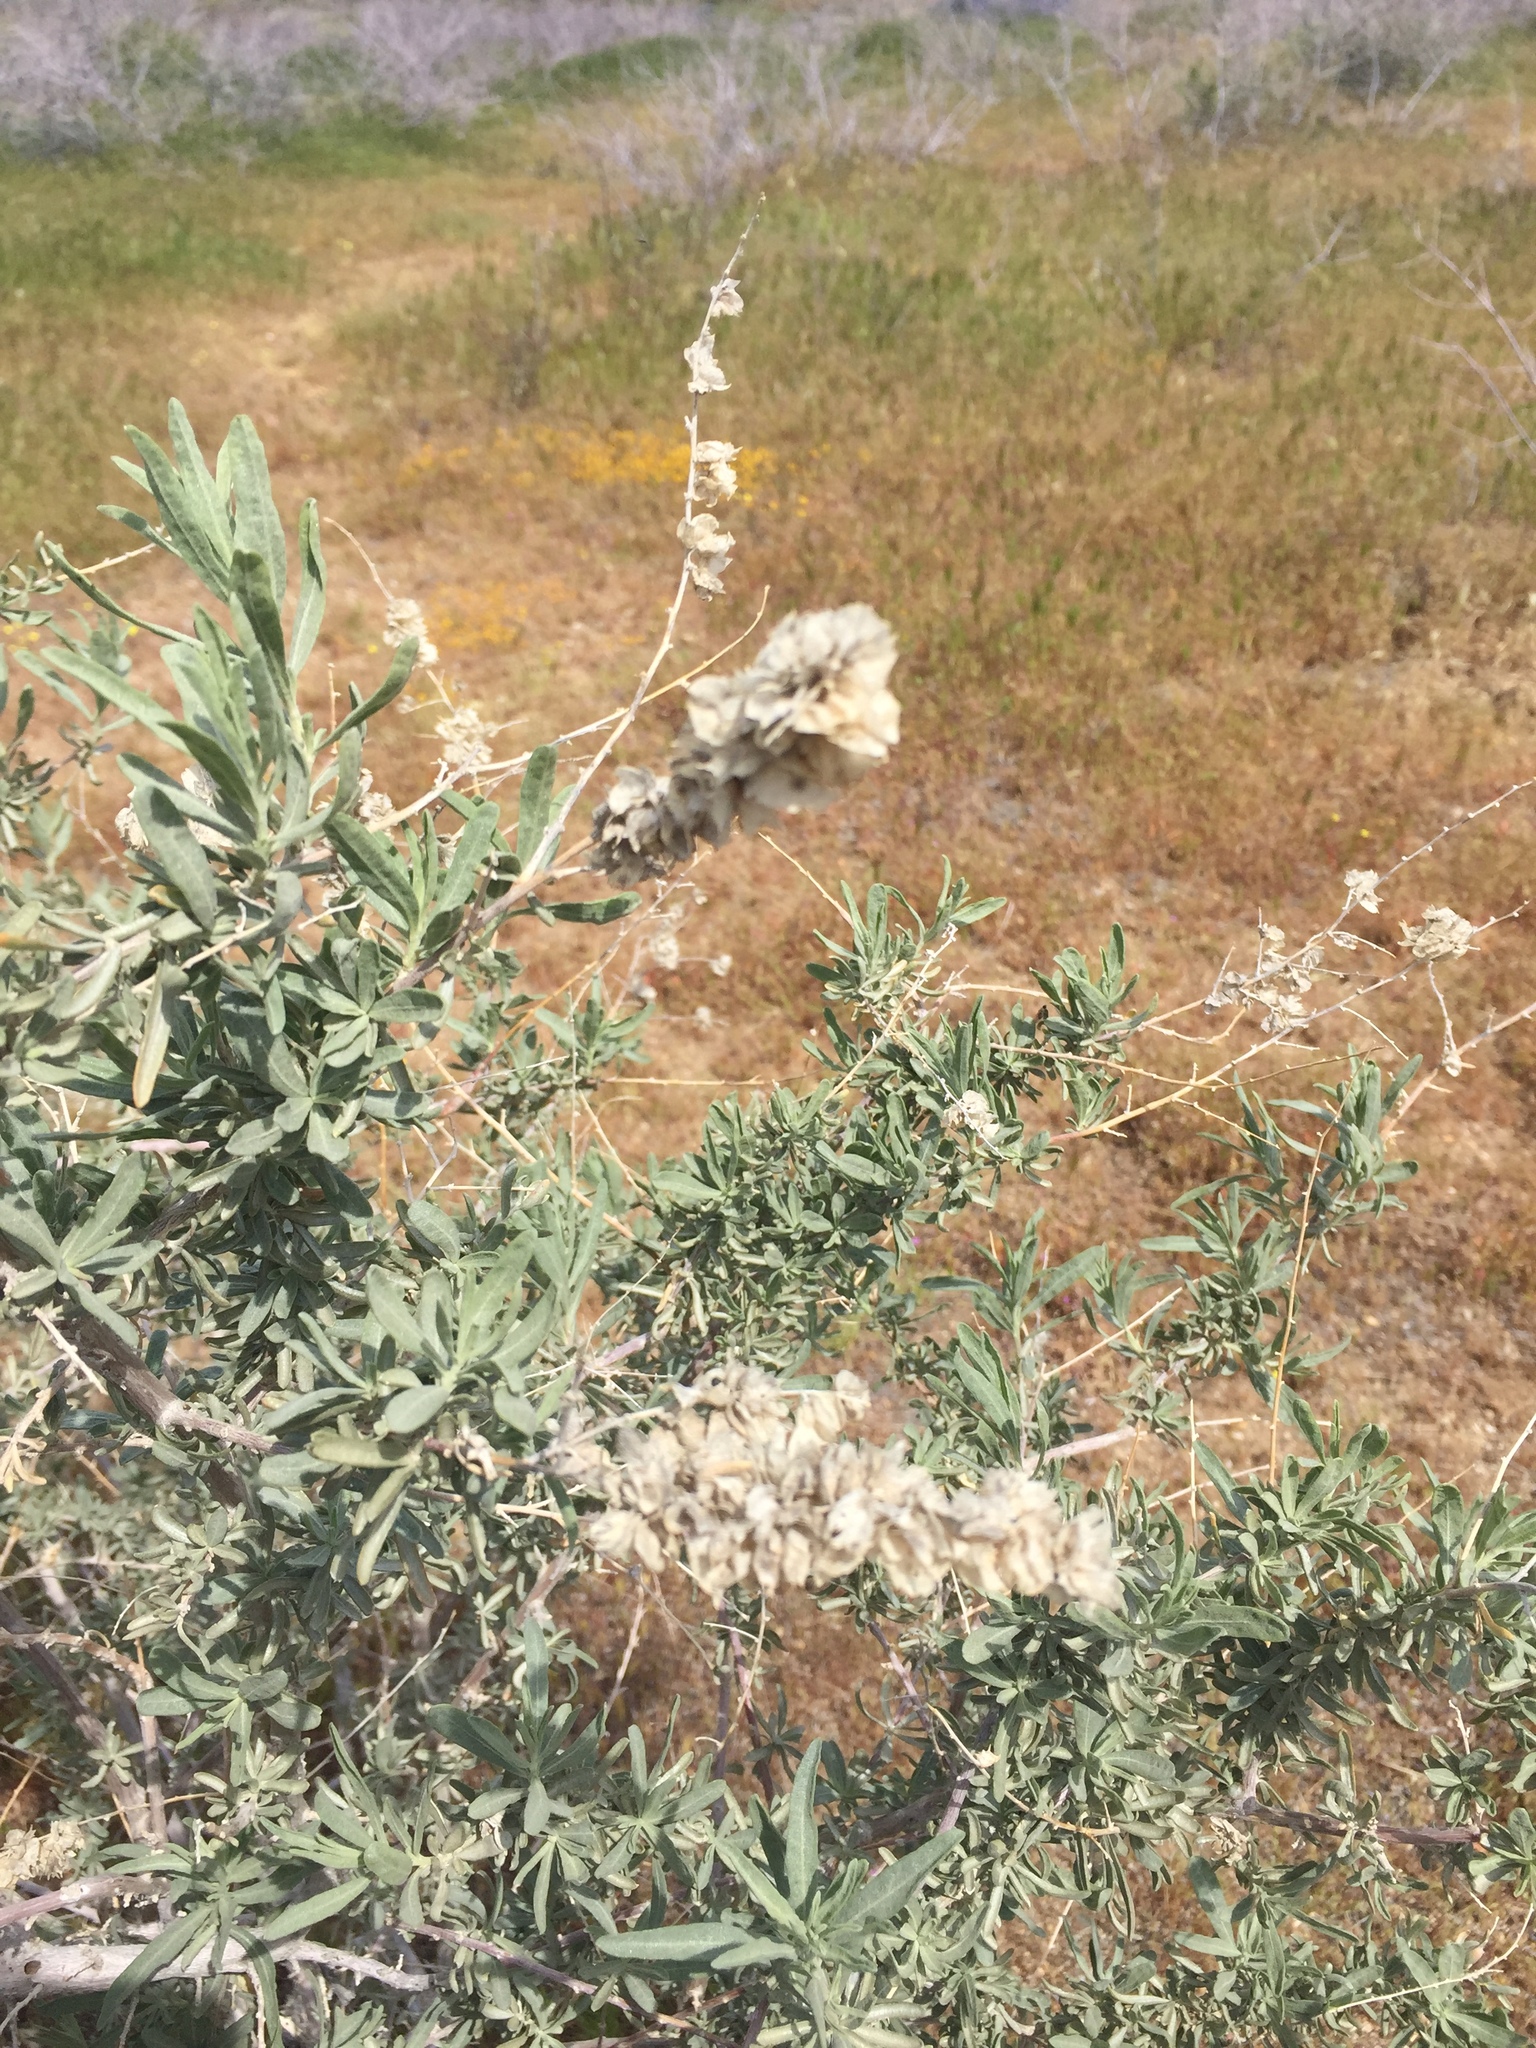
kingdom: Plantae
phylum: Tracheophyta
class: Magnoliopsida
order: Caryophyllales
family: Amaranthaceae
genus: Atriplex
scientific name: Atriplex canescens
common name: Four-wing saltbush
